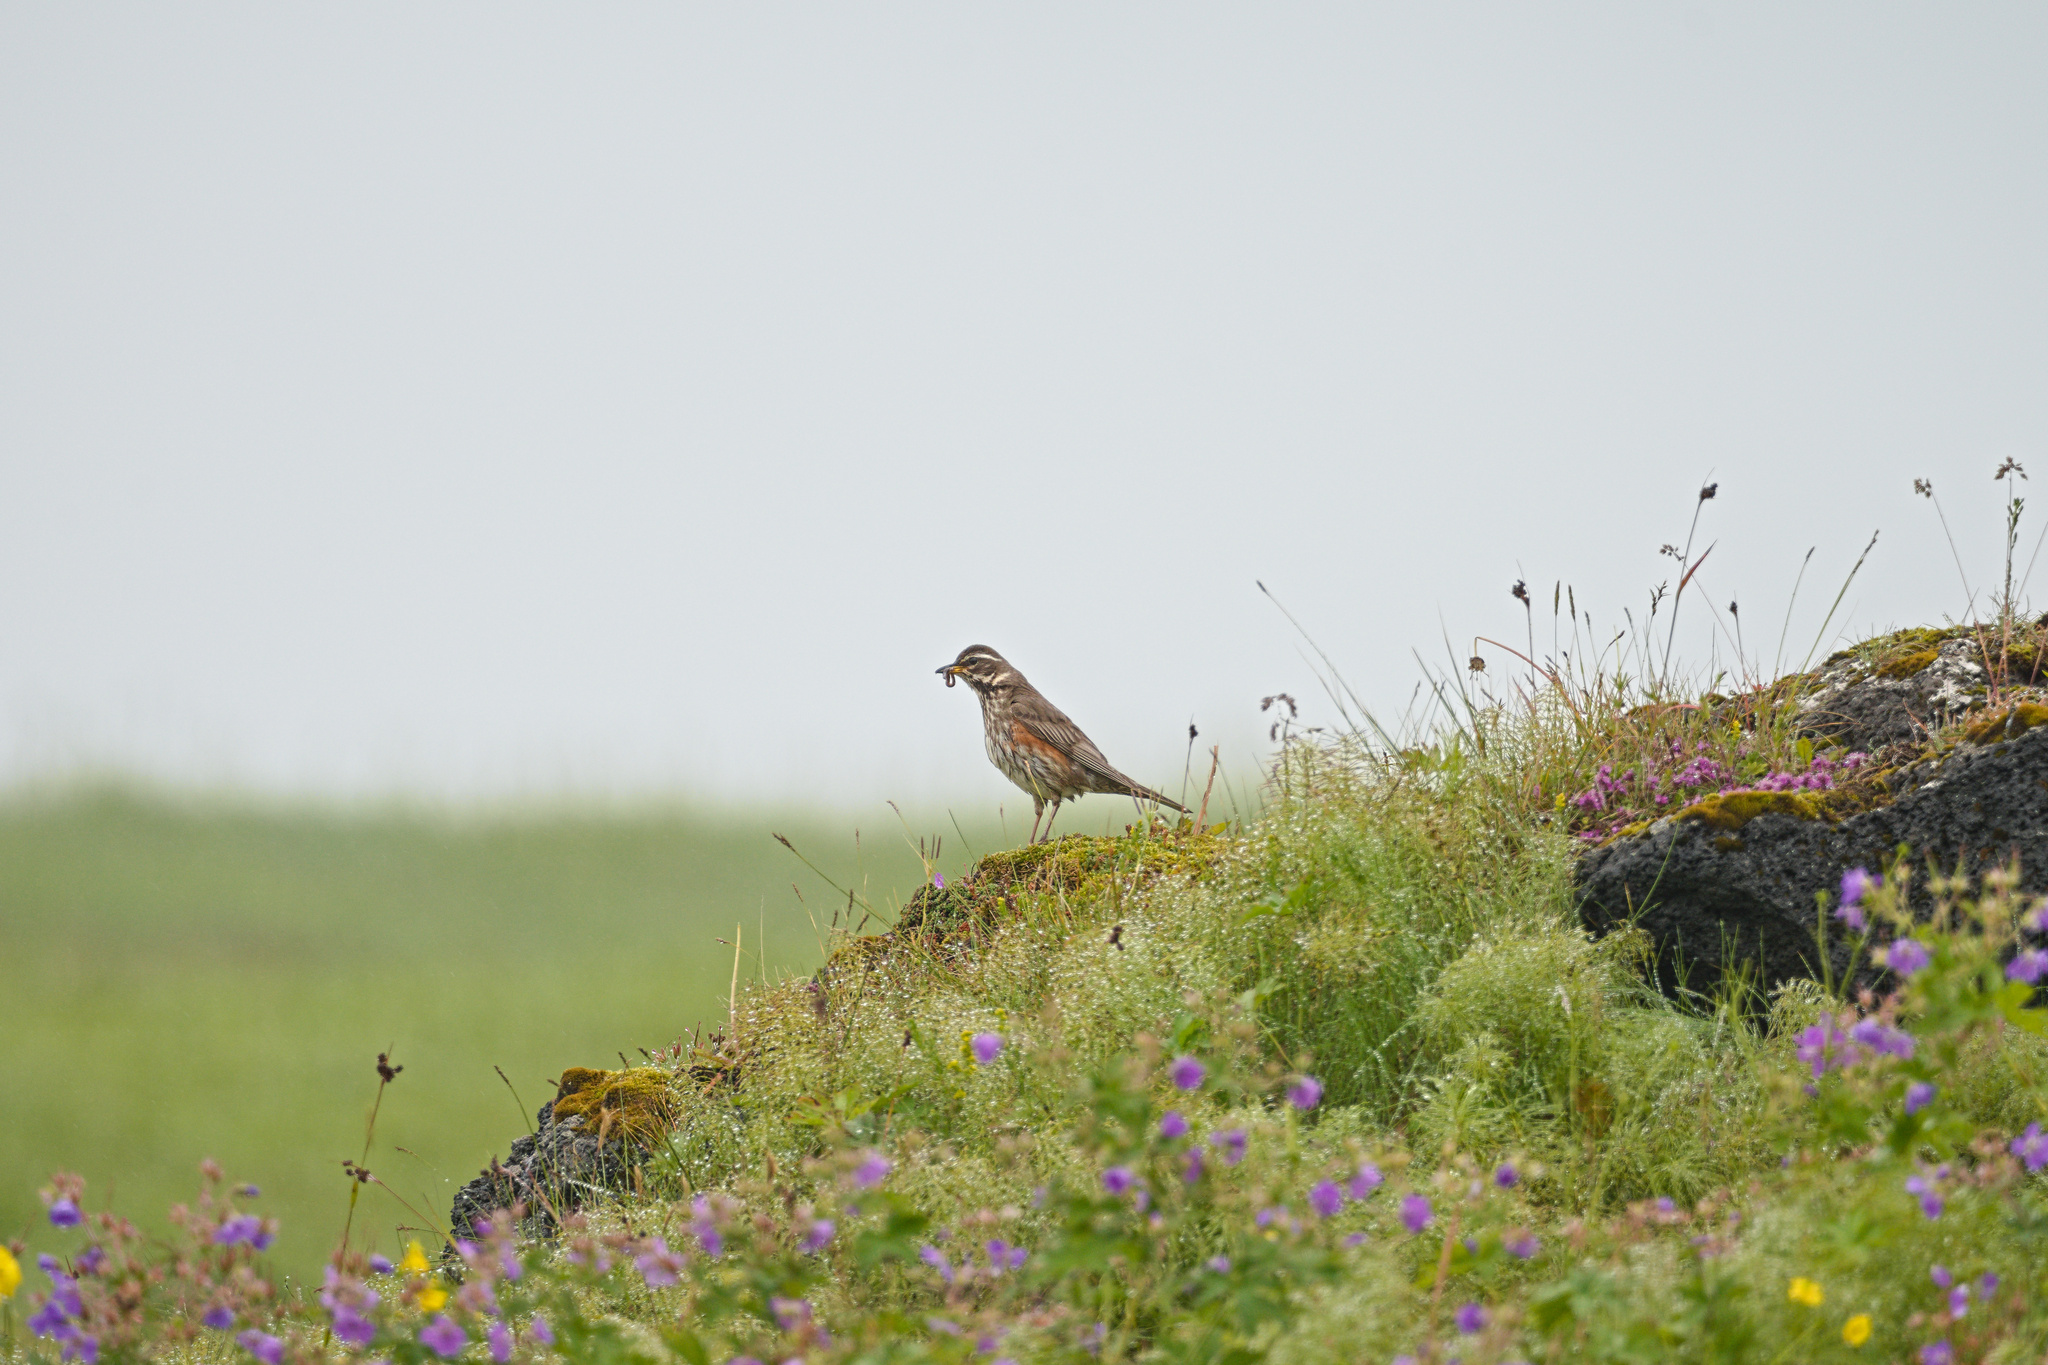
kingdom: Animalia
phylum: Chordata
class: Aves
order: Passeriformes
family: Turdidae
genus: Turdus
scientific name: Turdus iliacus
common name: Redwing
